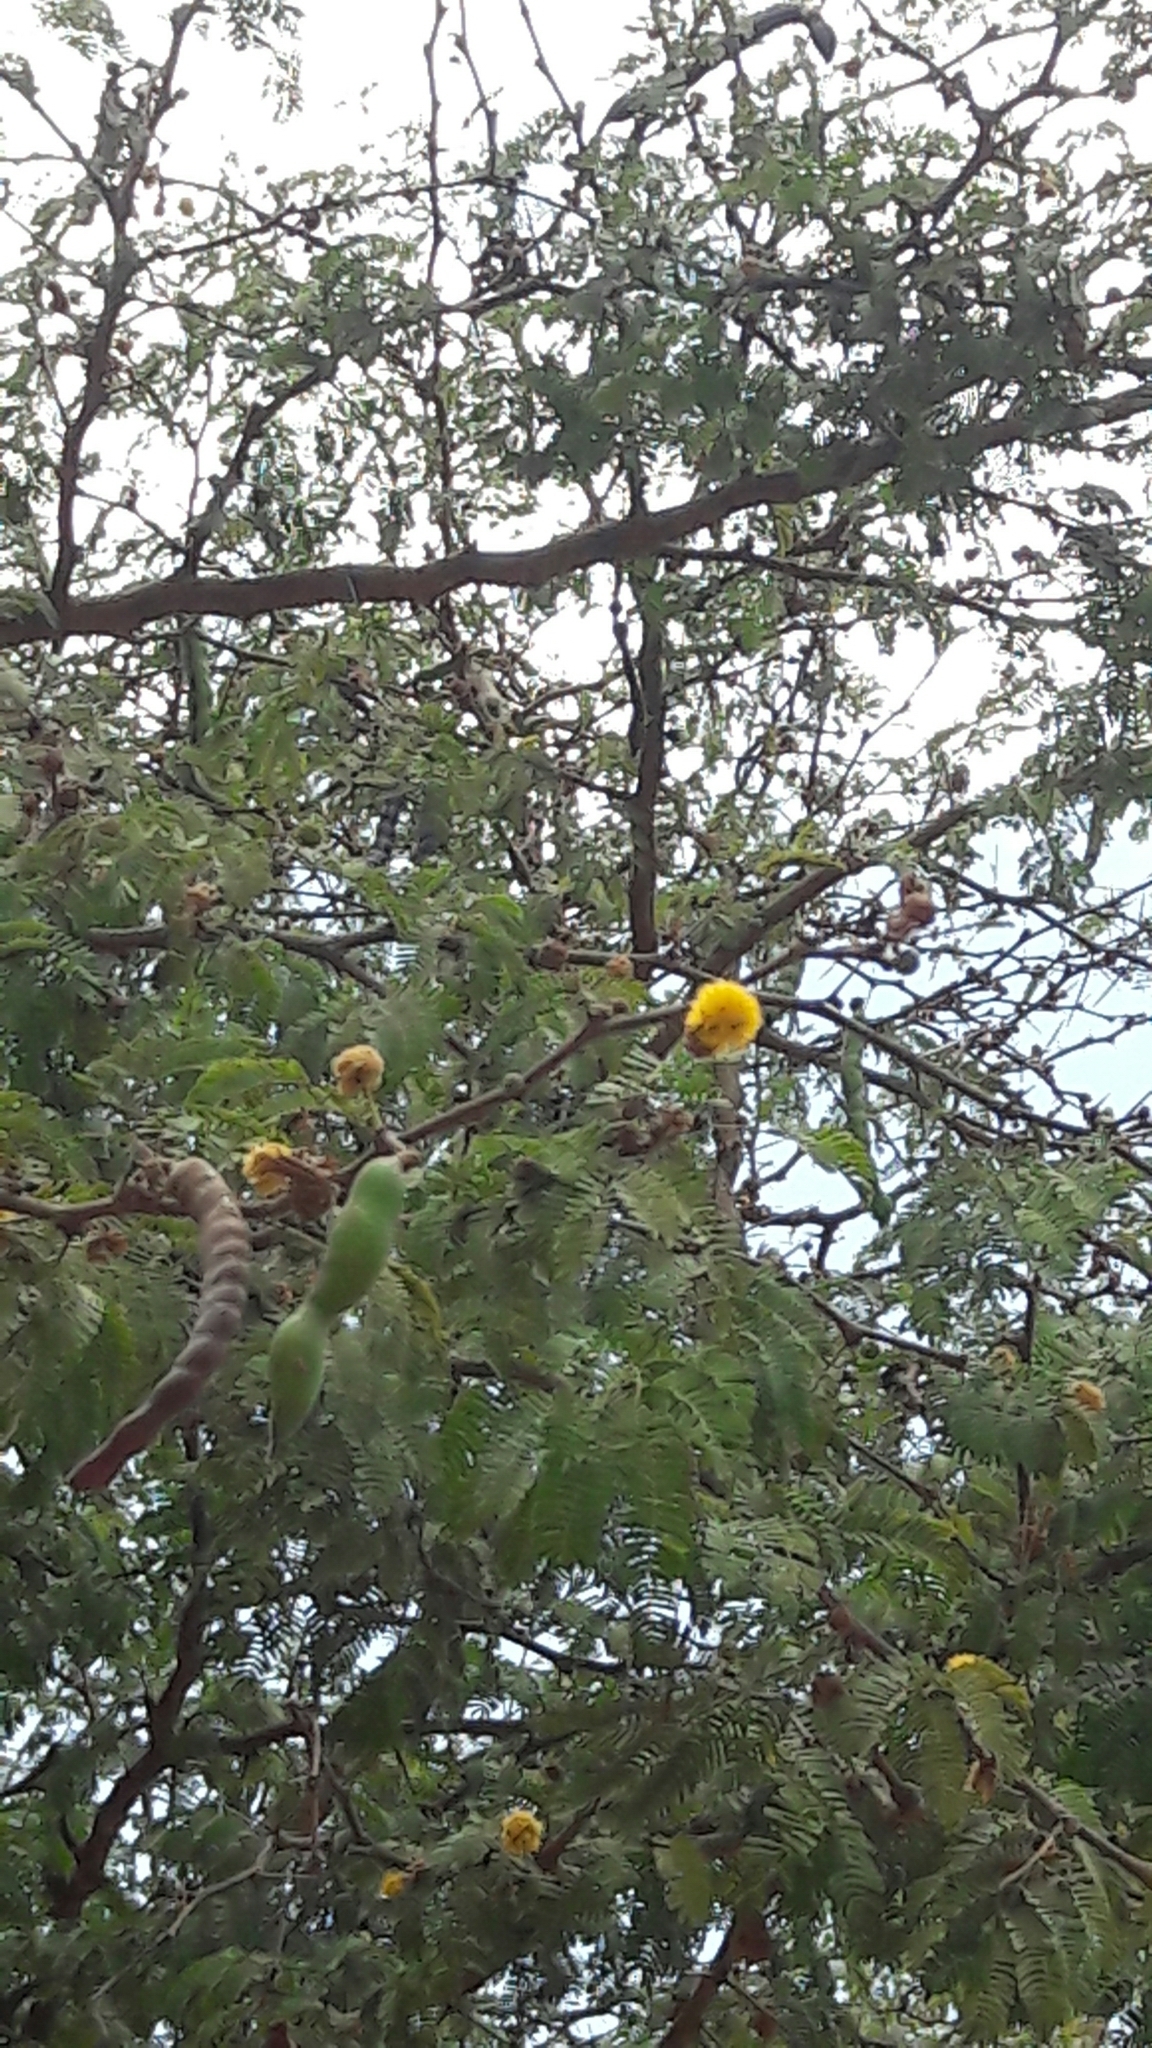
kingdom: Plantae
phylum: Tracheophyta
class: Magnoliopsida
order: Fabales
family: Fabaceae
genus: Vachellia
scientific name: Vachellia farnesiana
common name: Sweet acacia
